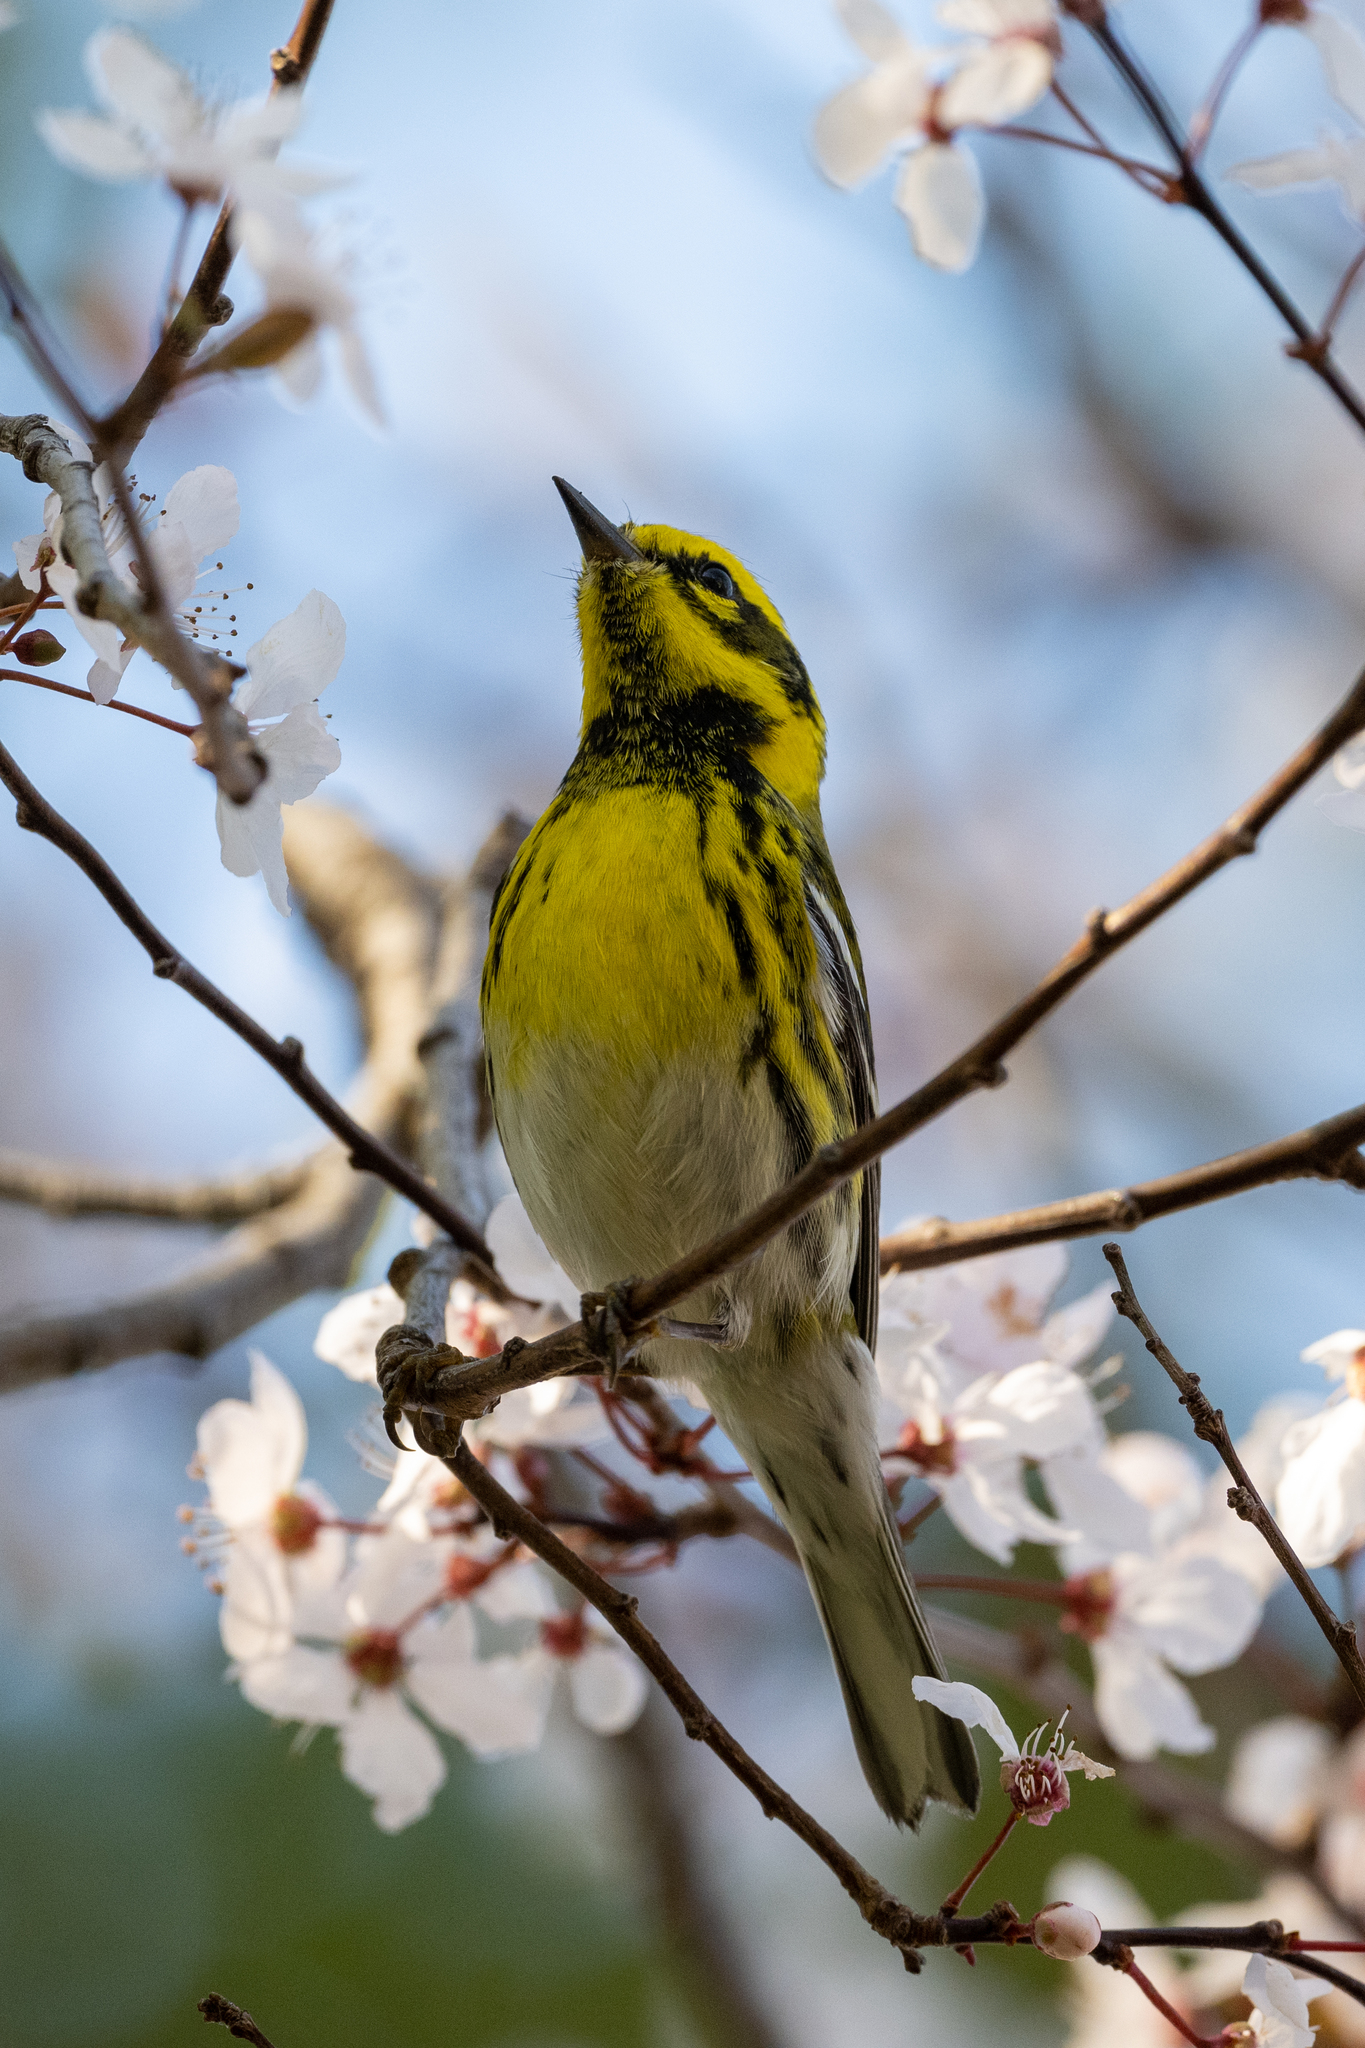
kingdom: Animalia
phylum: Chordata
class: Aves
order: Passeriformes
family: Parulidae
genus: Setophaga
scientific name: Setophaga townsendi
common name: Townsend's warbler
